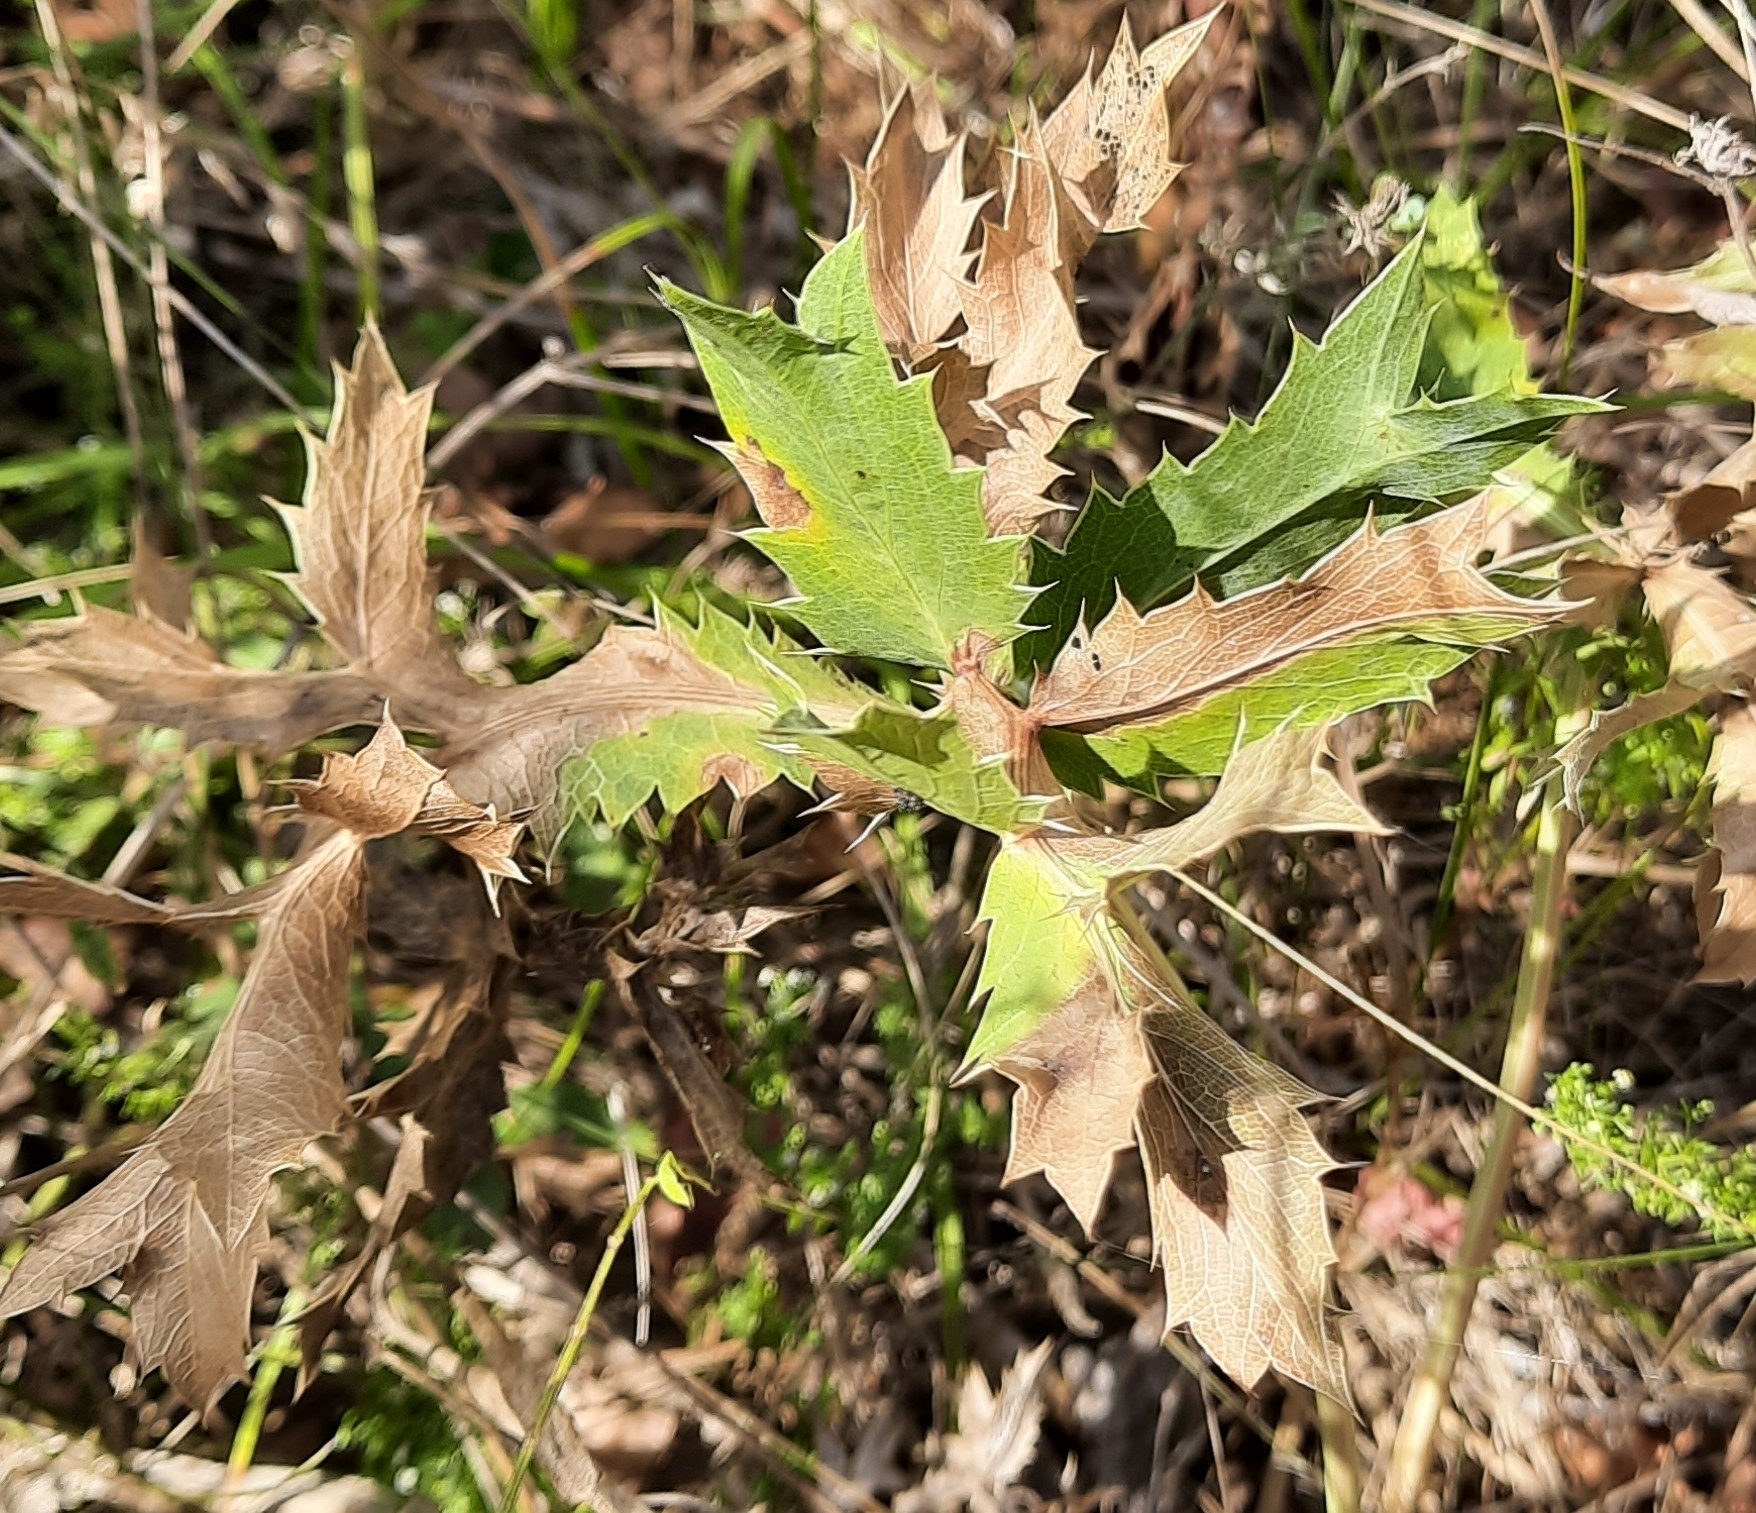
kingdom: Plantae
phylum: Tracheophyta
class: Magnoliopsida
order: Apiales
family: Apiaceae
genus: Eryngium
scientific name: Eryngium campestre
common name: Field eryngo
